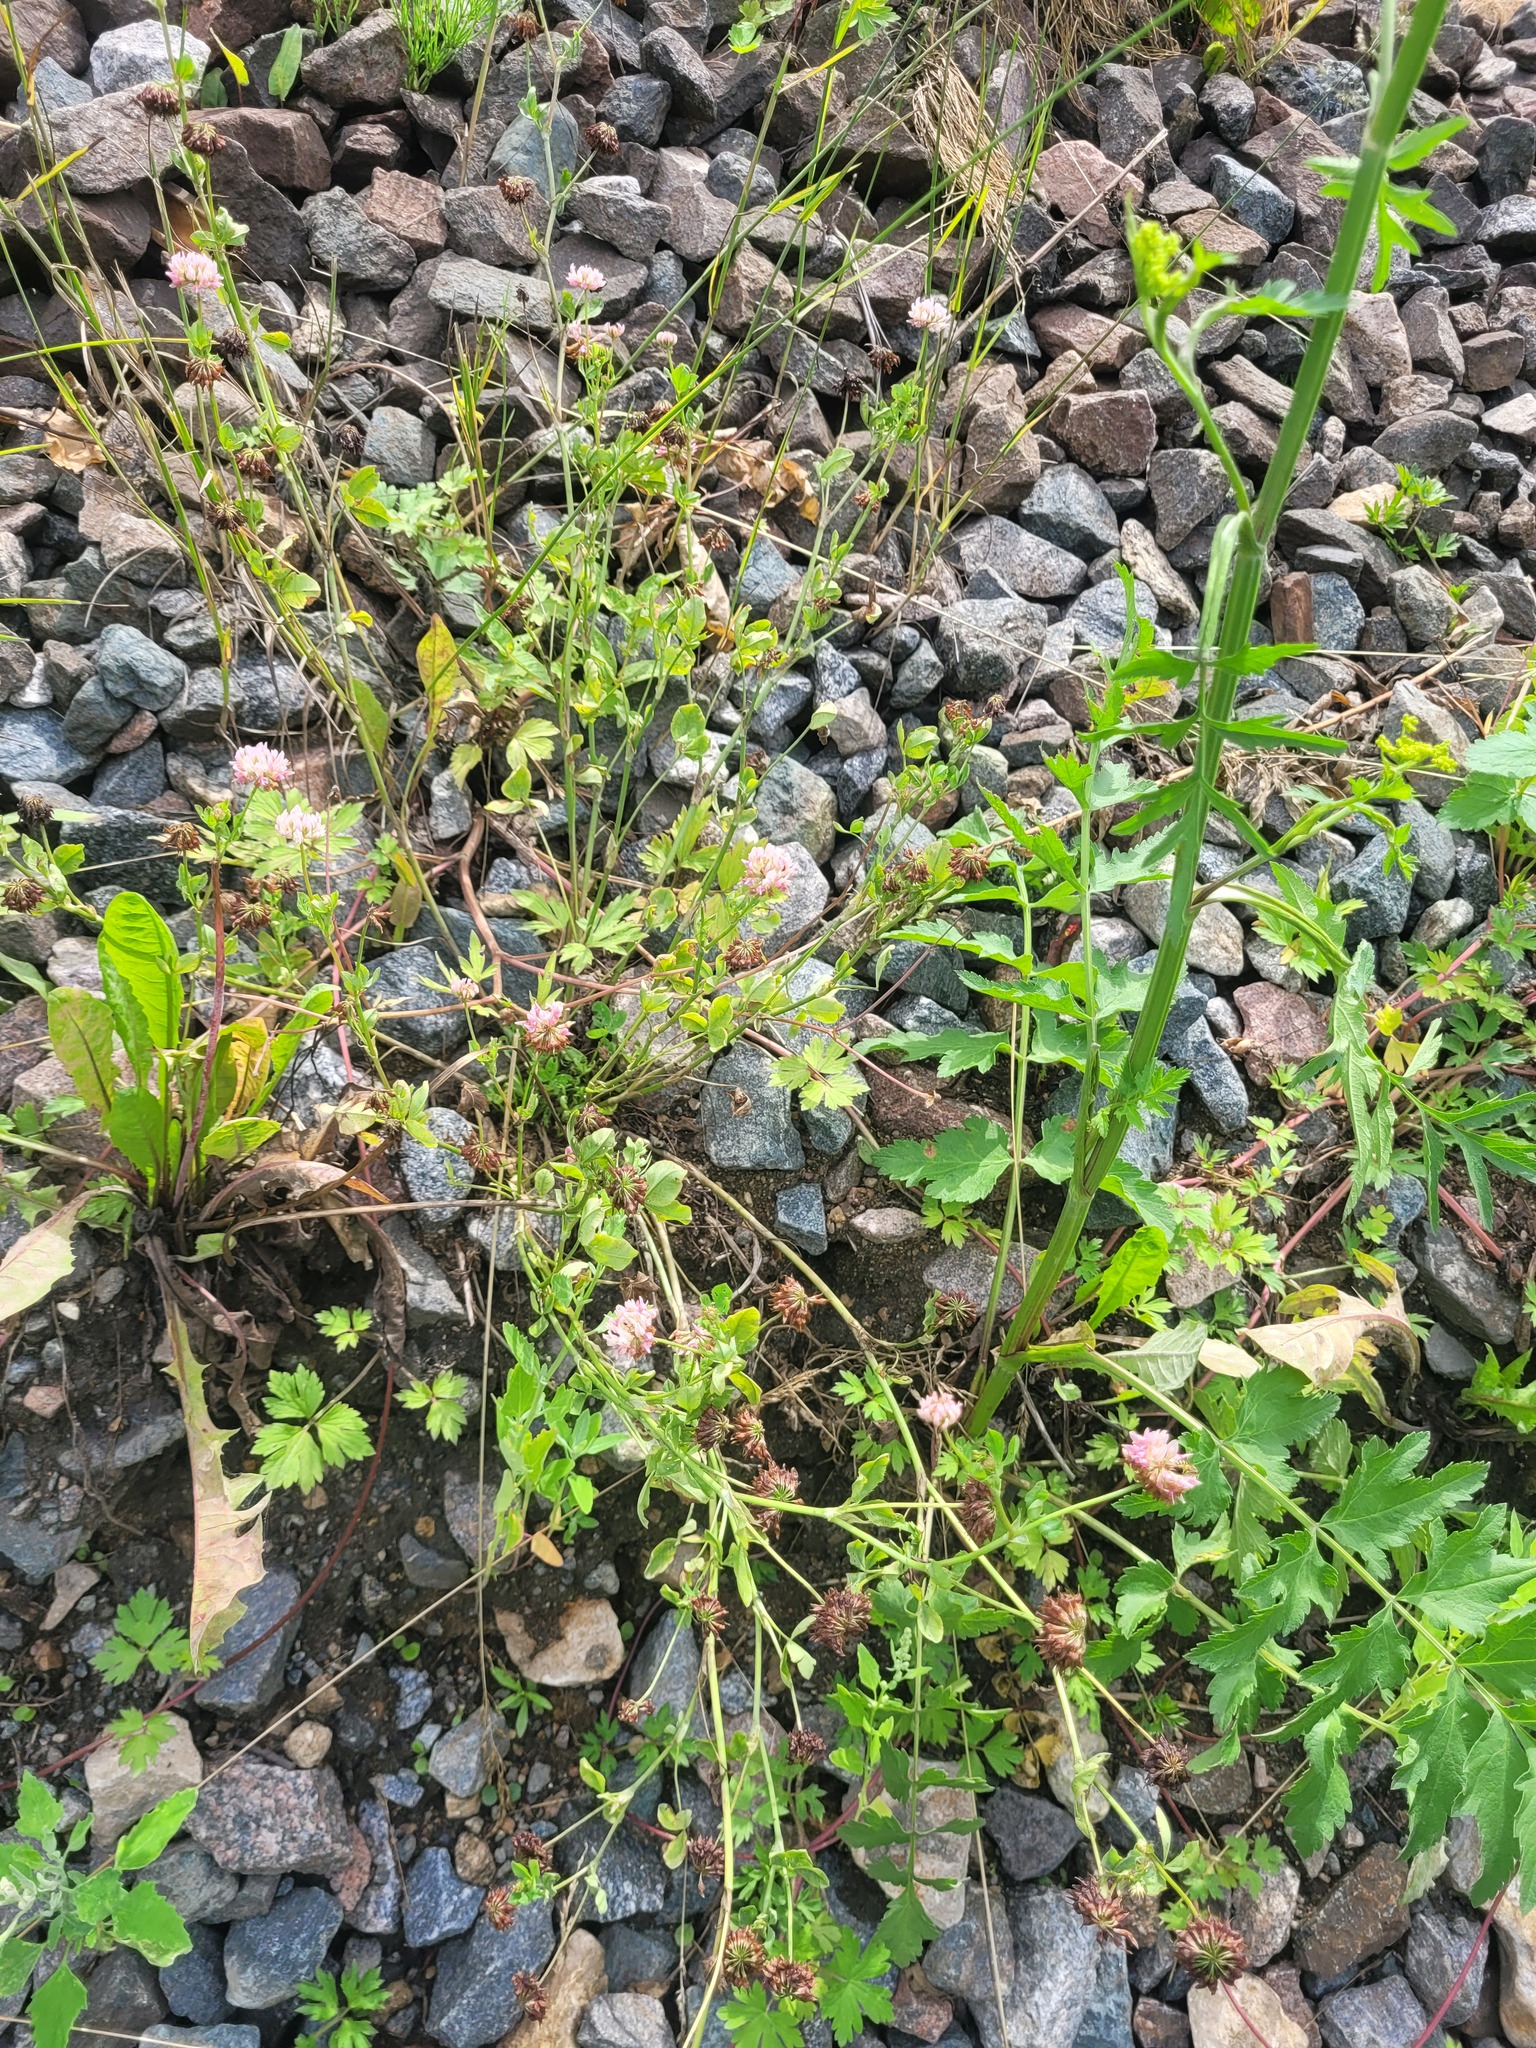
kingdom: Plantae
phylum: Tracheophyta
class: Magnoliopsida
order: Ranunculales
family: Ranunculaceae
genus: Ranunculus
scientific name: Ranunculus repens
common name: Creeping buttercup
